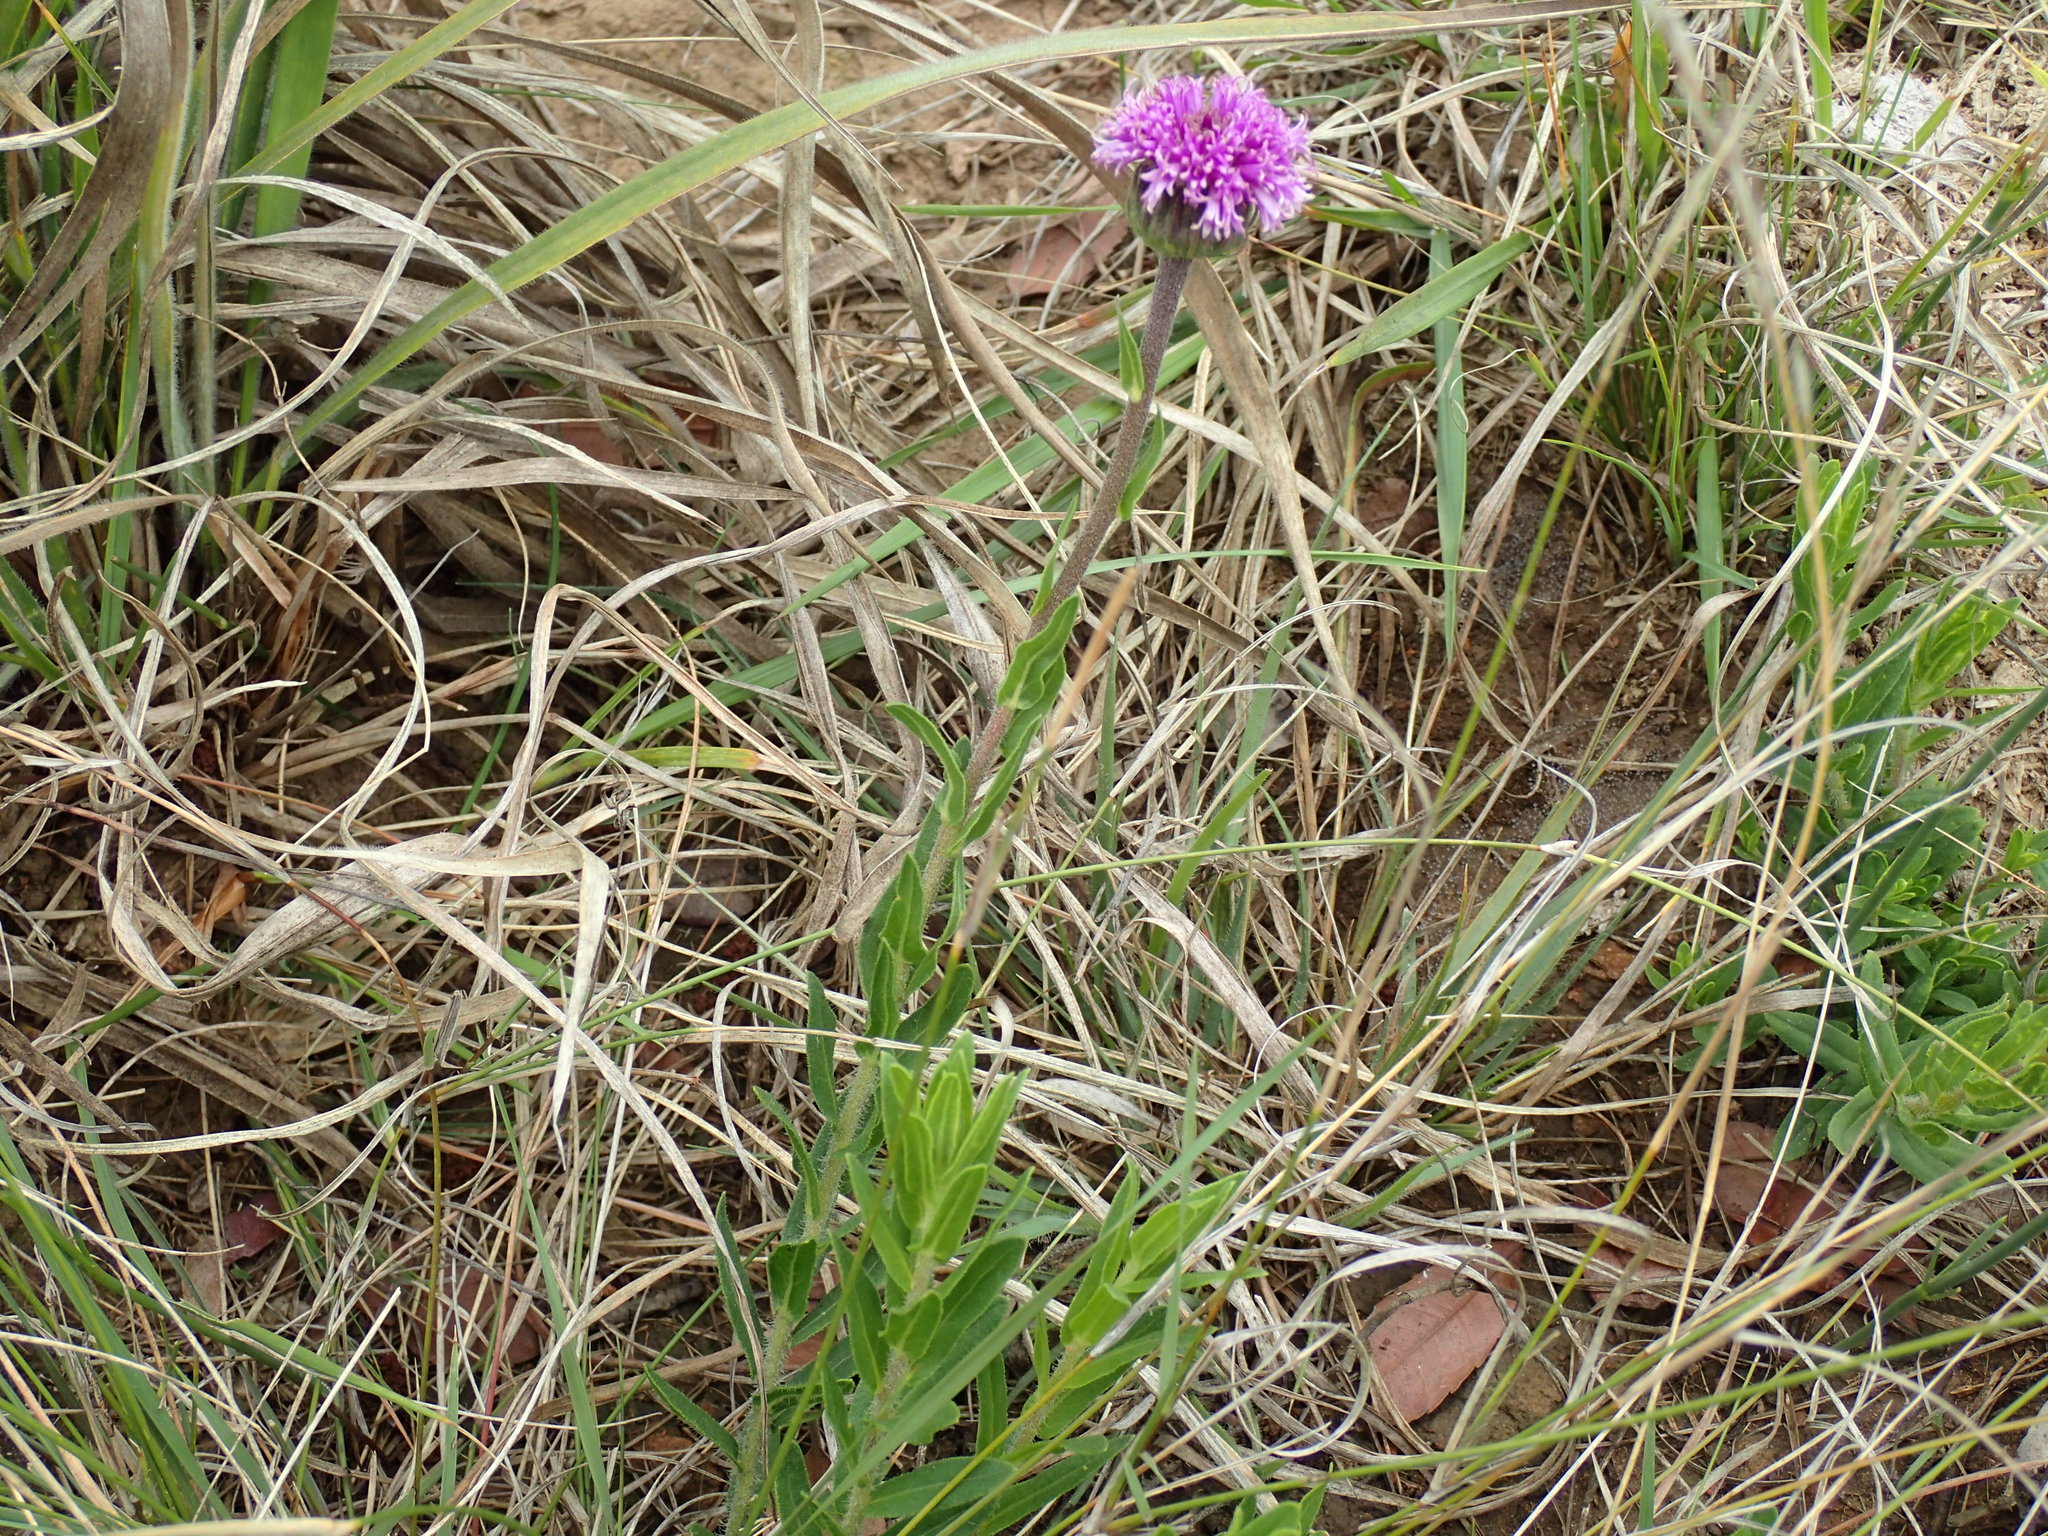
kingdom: Plantae
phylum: Tracheophyta
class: Magnoliopsida
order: Asterales
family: Asteraceae
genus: Pseudopegolettia
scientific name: Pseudopegolettia tenella
